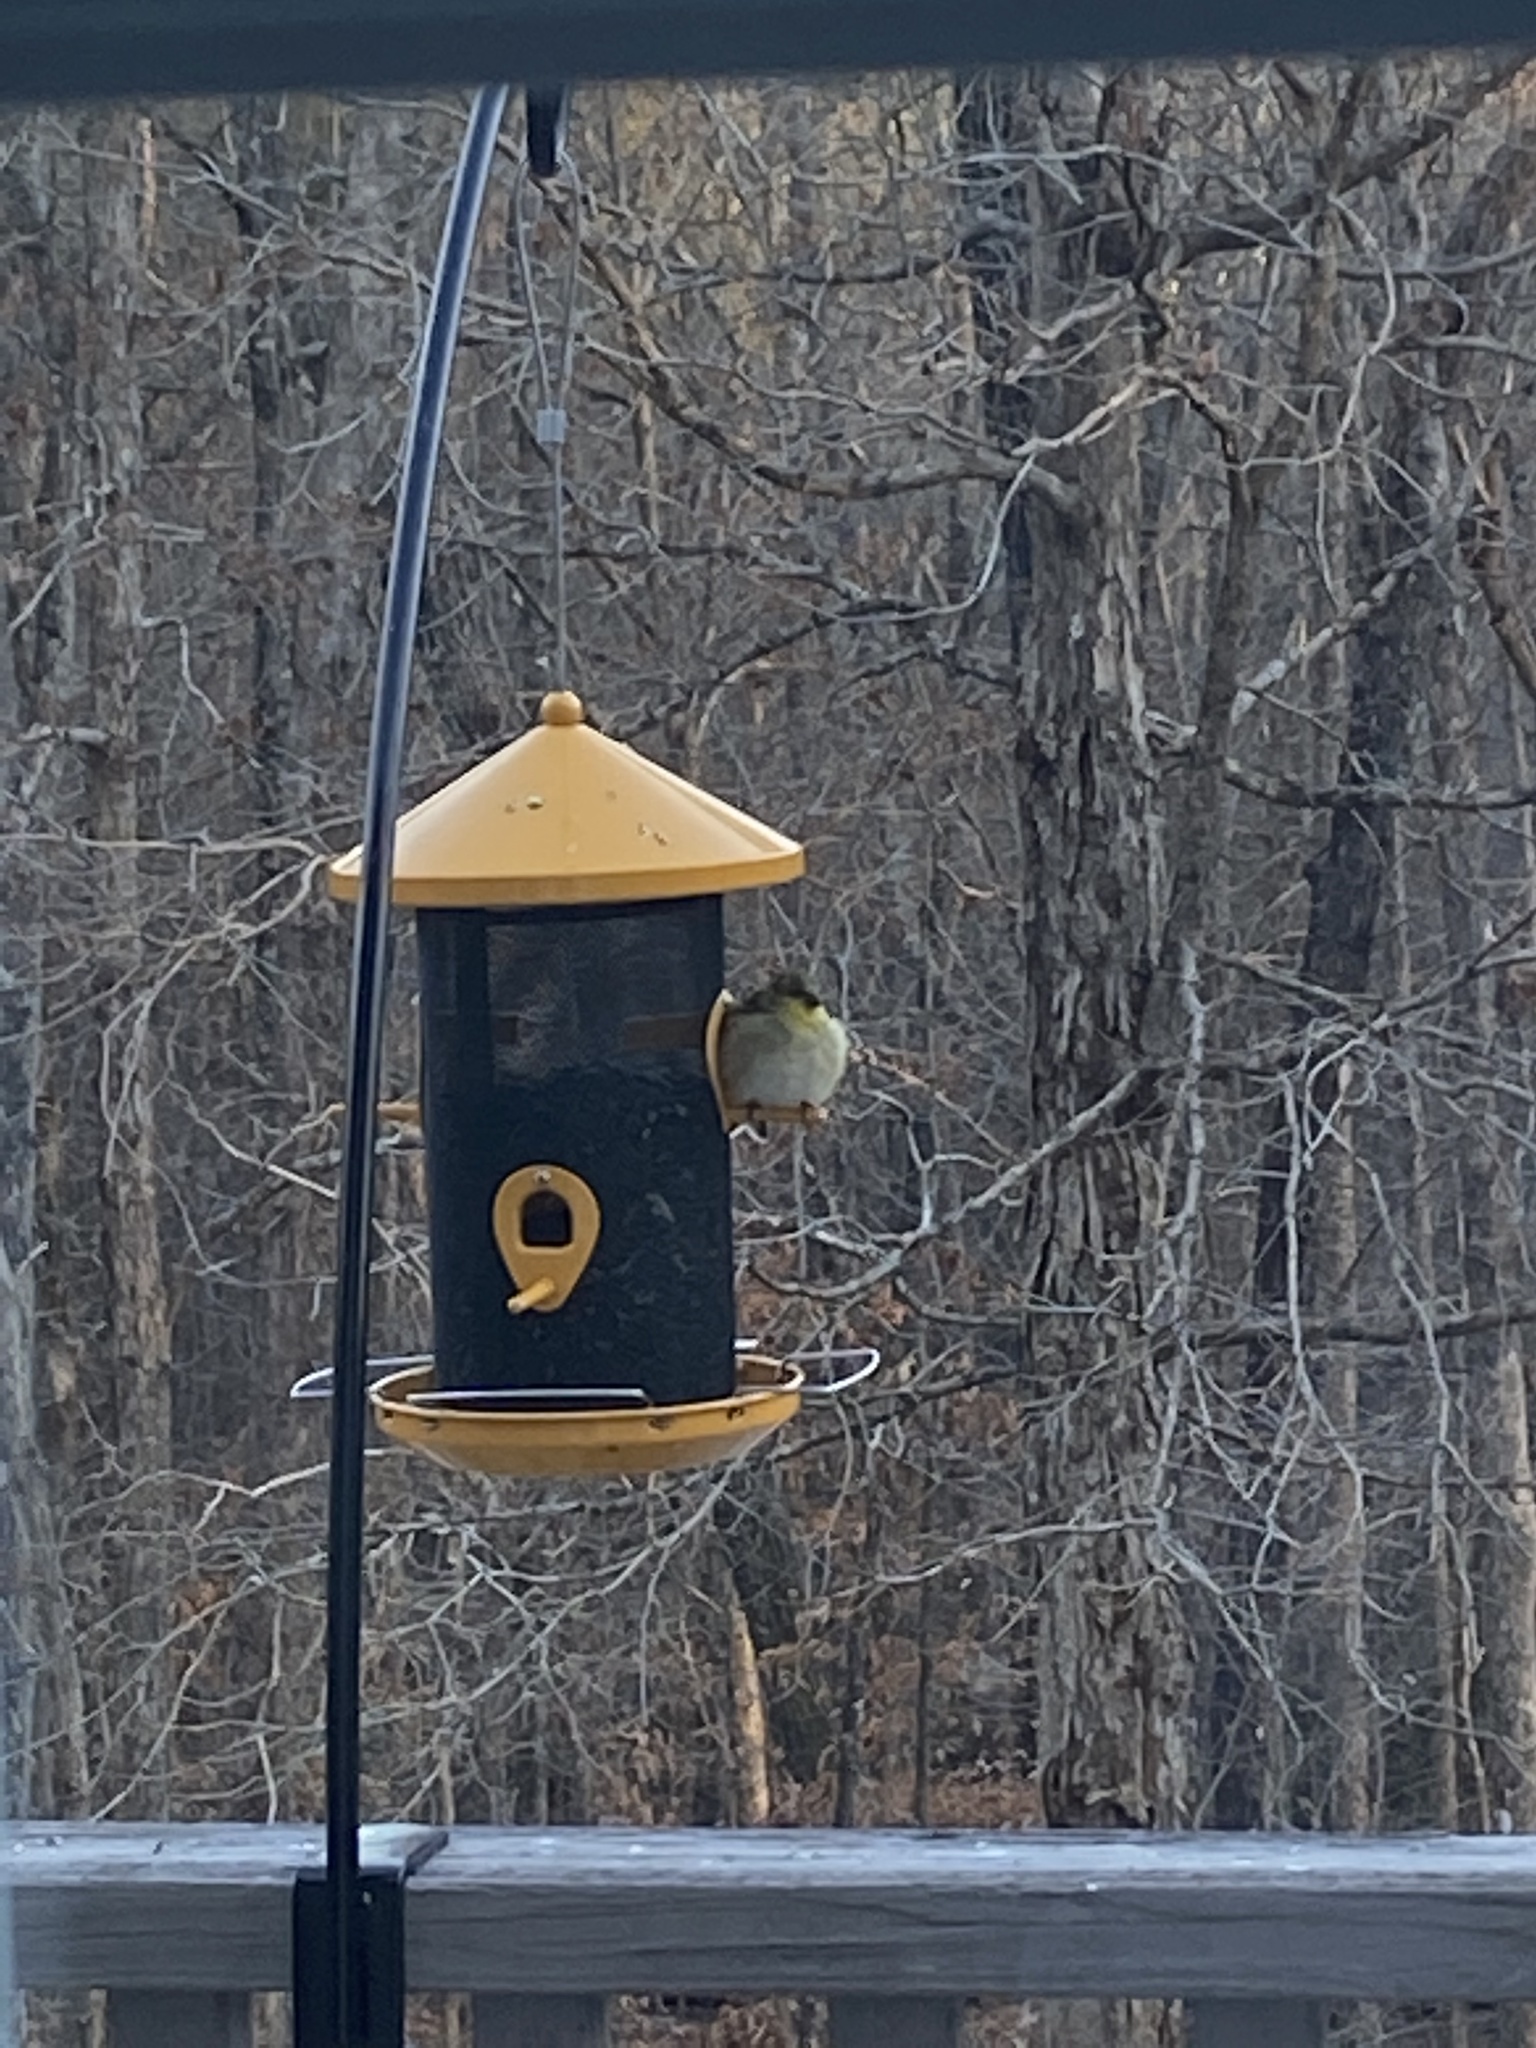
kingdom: Animalia
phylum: Chordata
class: Aves
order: Passeriformes
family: Fringillidae
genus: Spinus
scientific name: Spinus tristis
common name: American goldfinch
